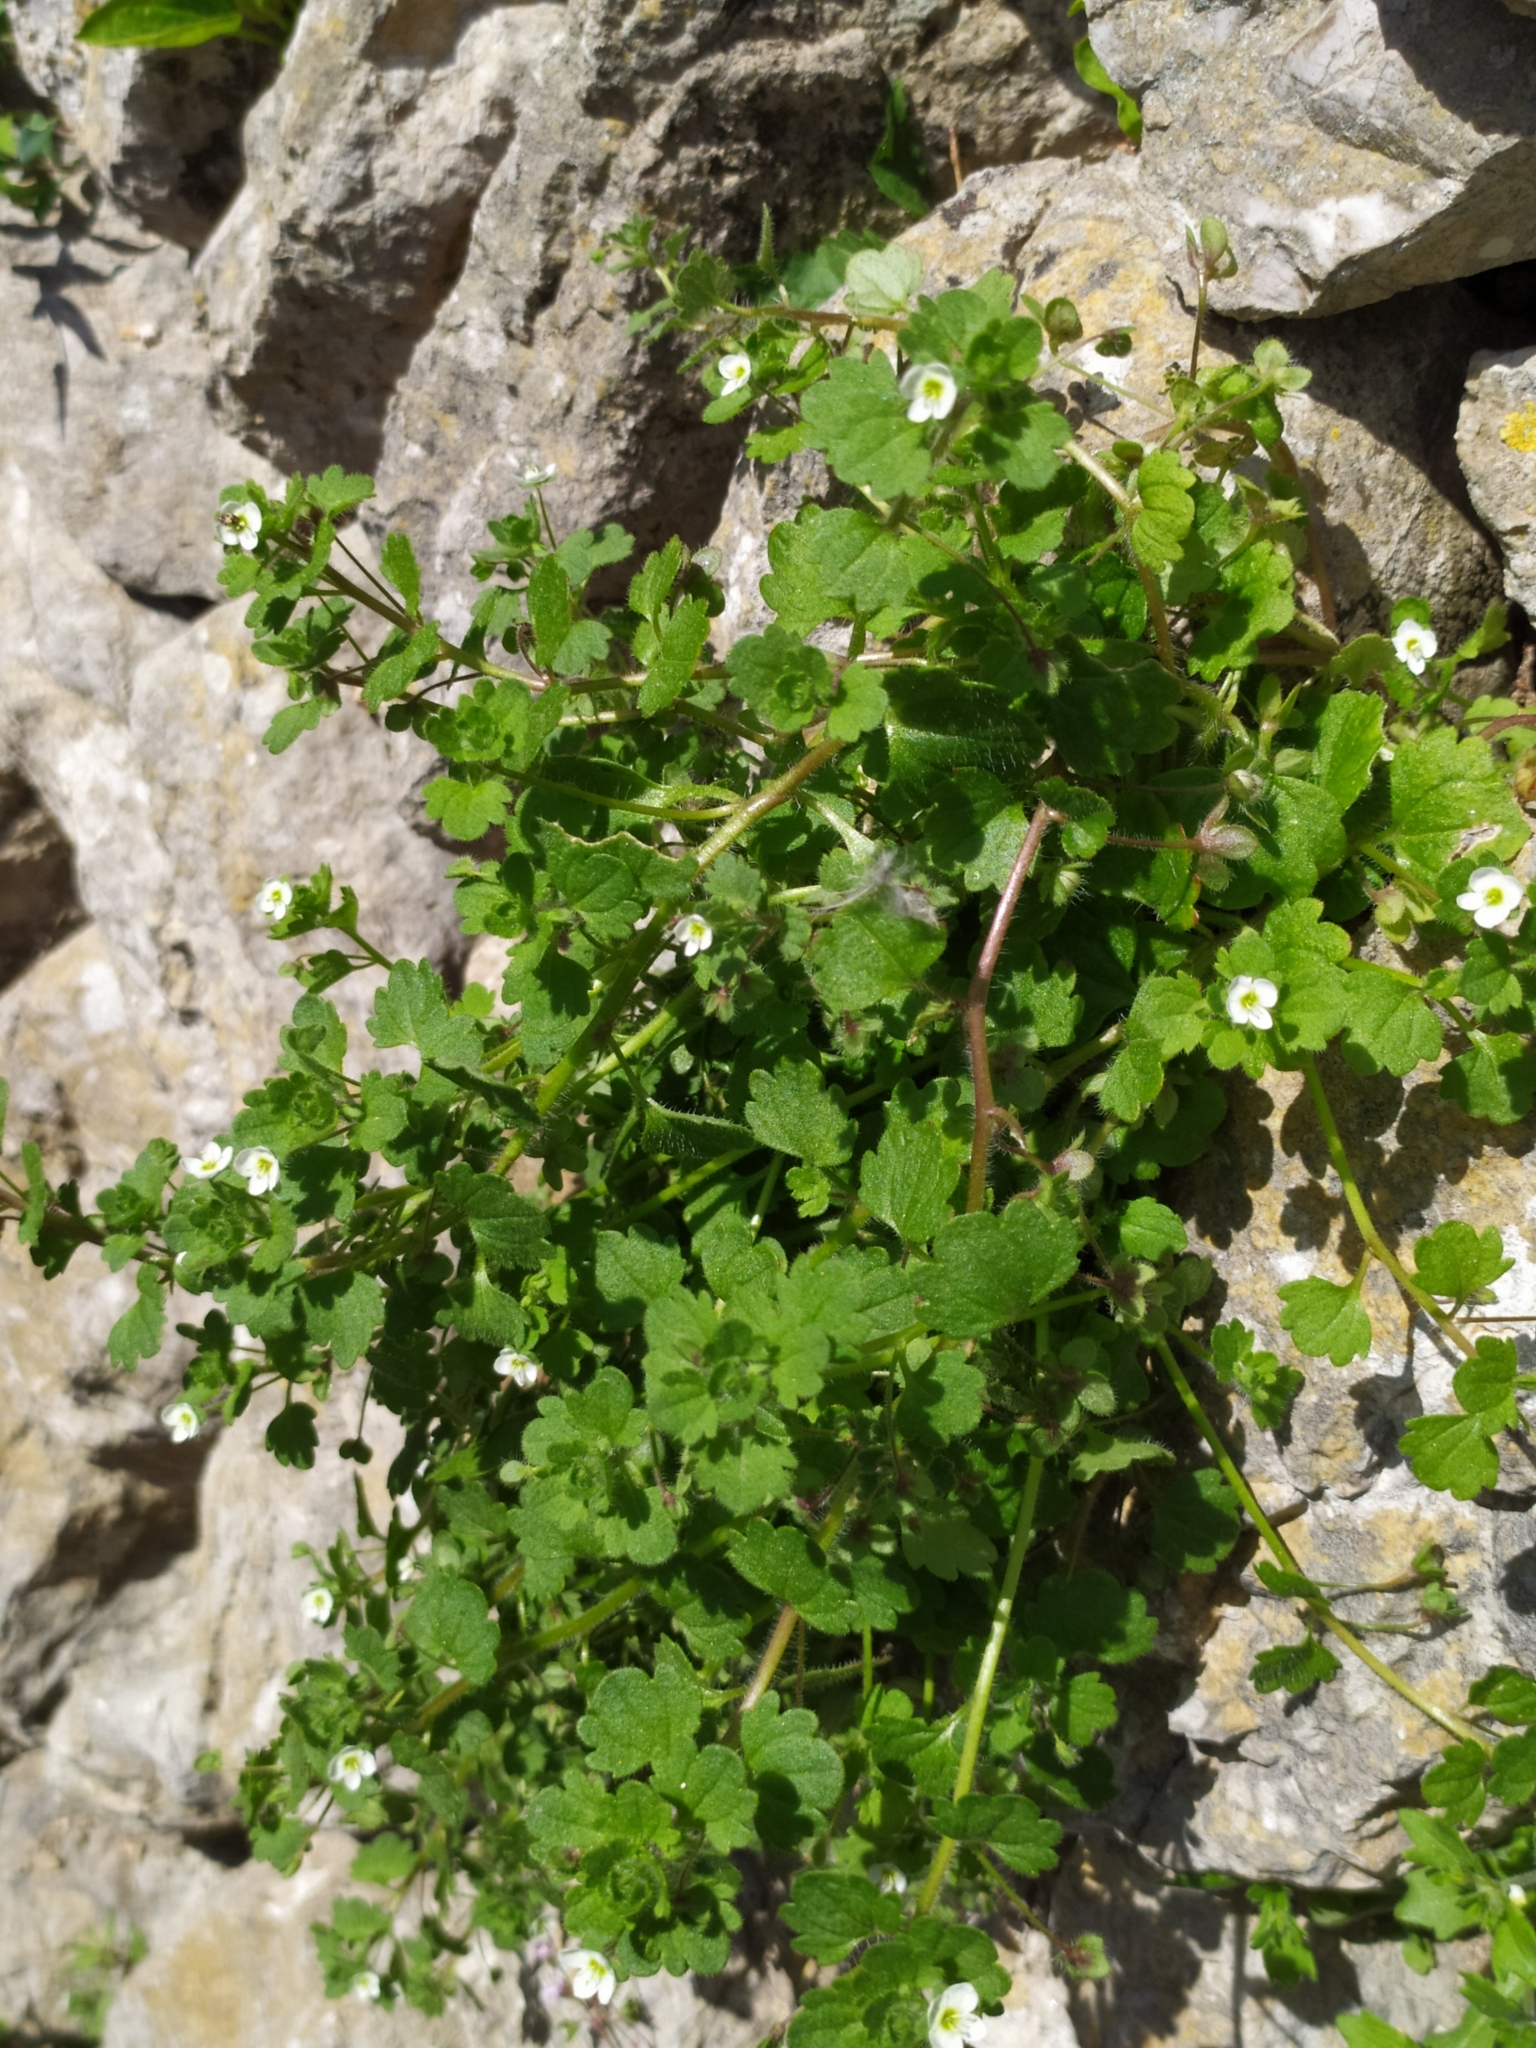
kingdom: Plantae
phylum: Tracheophyta
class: Magnoliopsida
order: Lamiales
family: Plantaginaceae
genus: Veronica
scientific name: Veronica cymbalaria
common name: Pale speedwell
